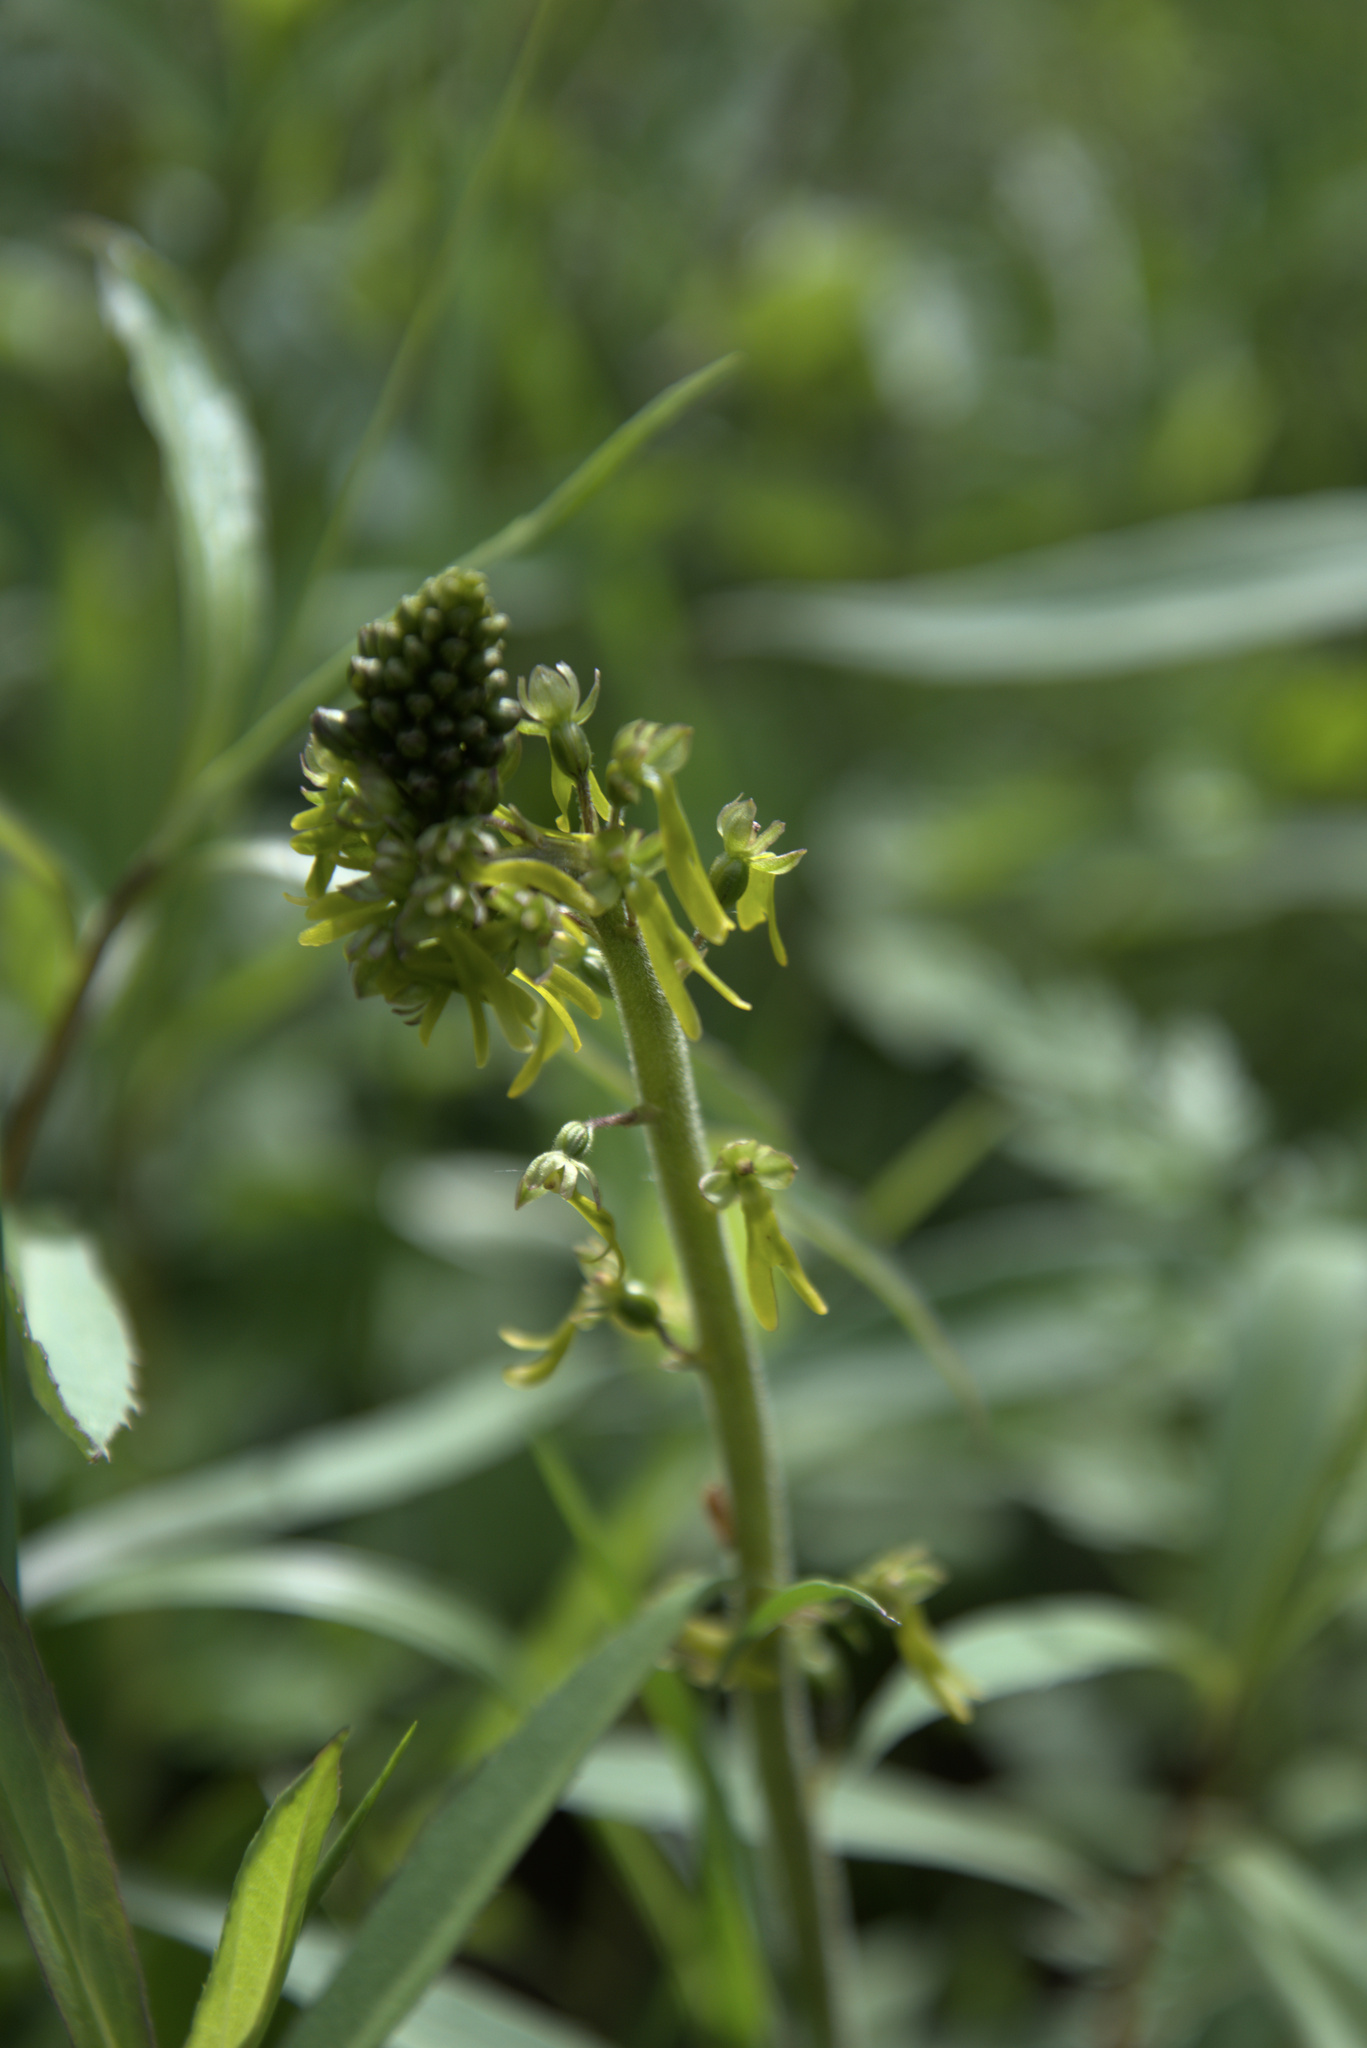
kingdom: Plantae
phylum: Tracheophyta
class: Liliopsida
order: Asparagales
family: Orchidaceae
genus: Neottia
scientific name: Neottia ovata
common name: Common twayblade
